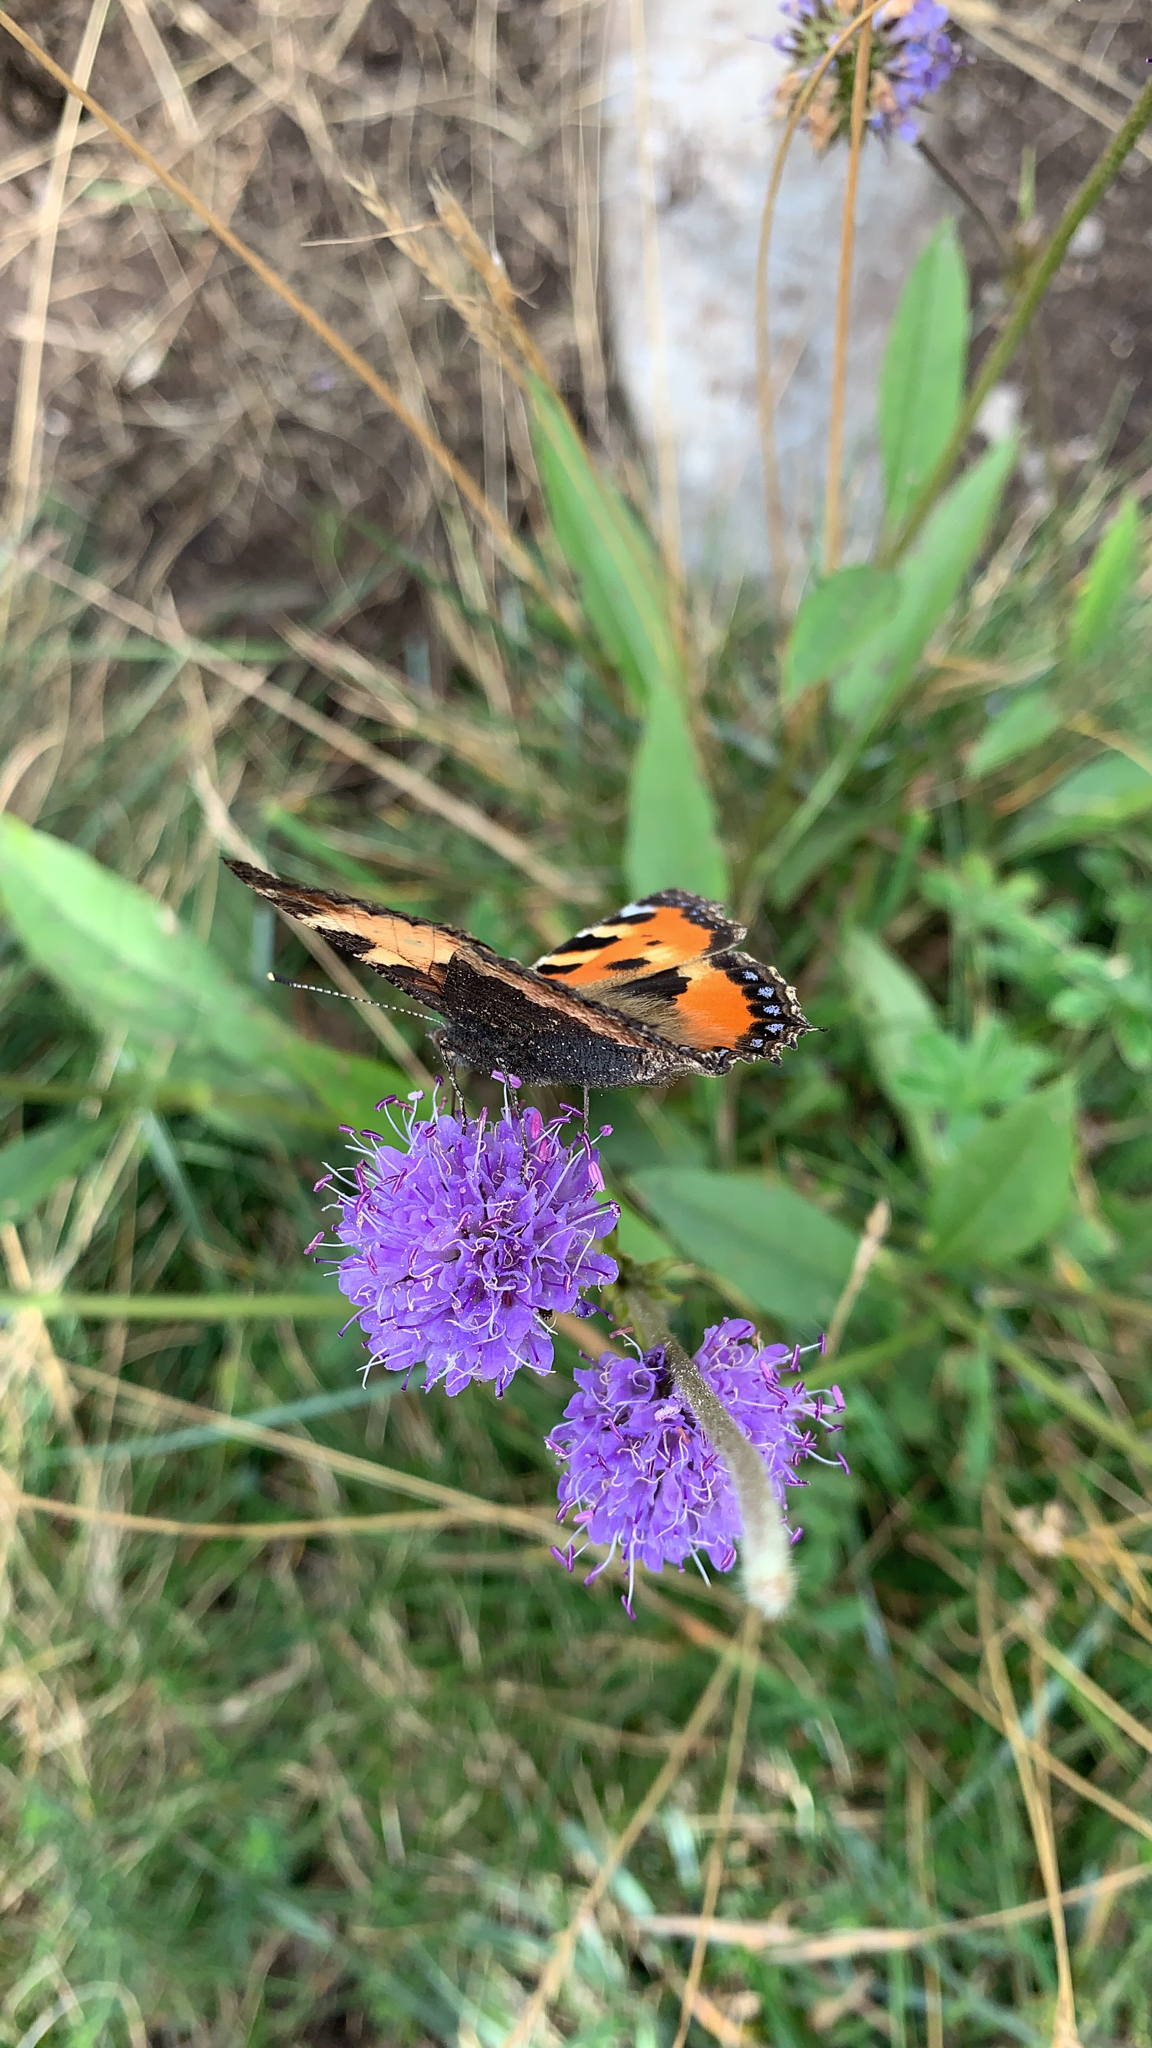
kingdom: Animalia
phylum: Arthropoda
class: Insecta
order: Lepidoptera
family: Nymphalidae
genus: Aglais
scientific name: Aglais urticae
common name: Small tortoiseshell
